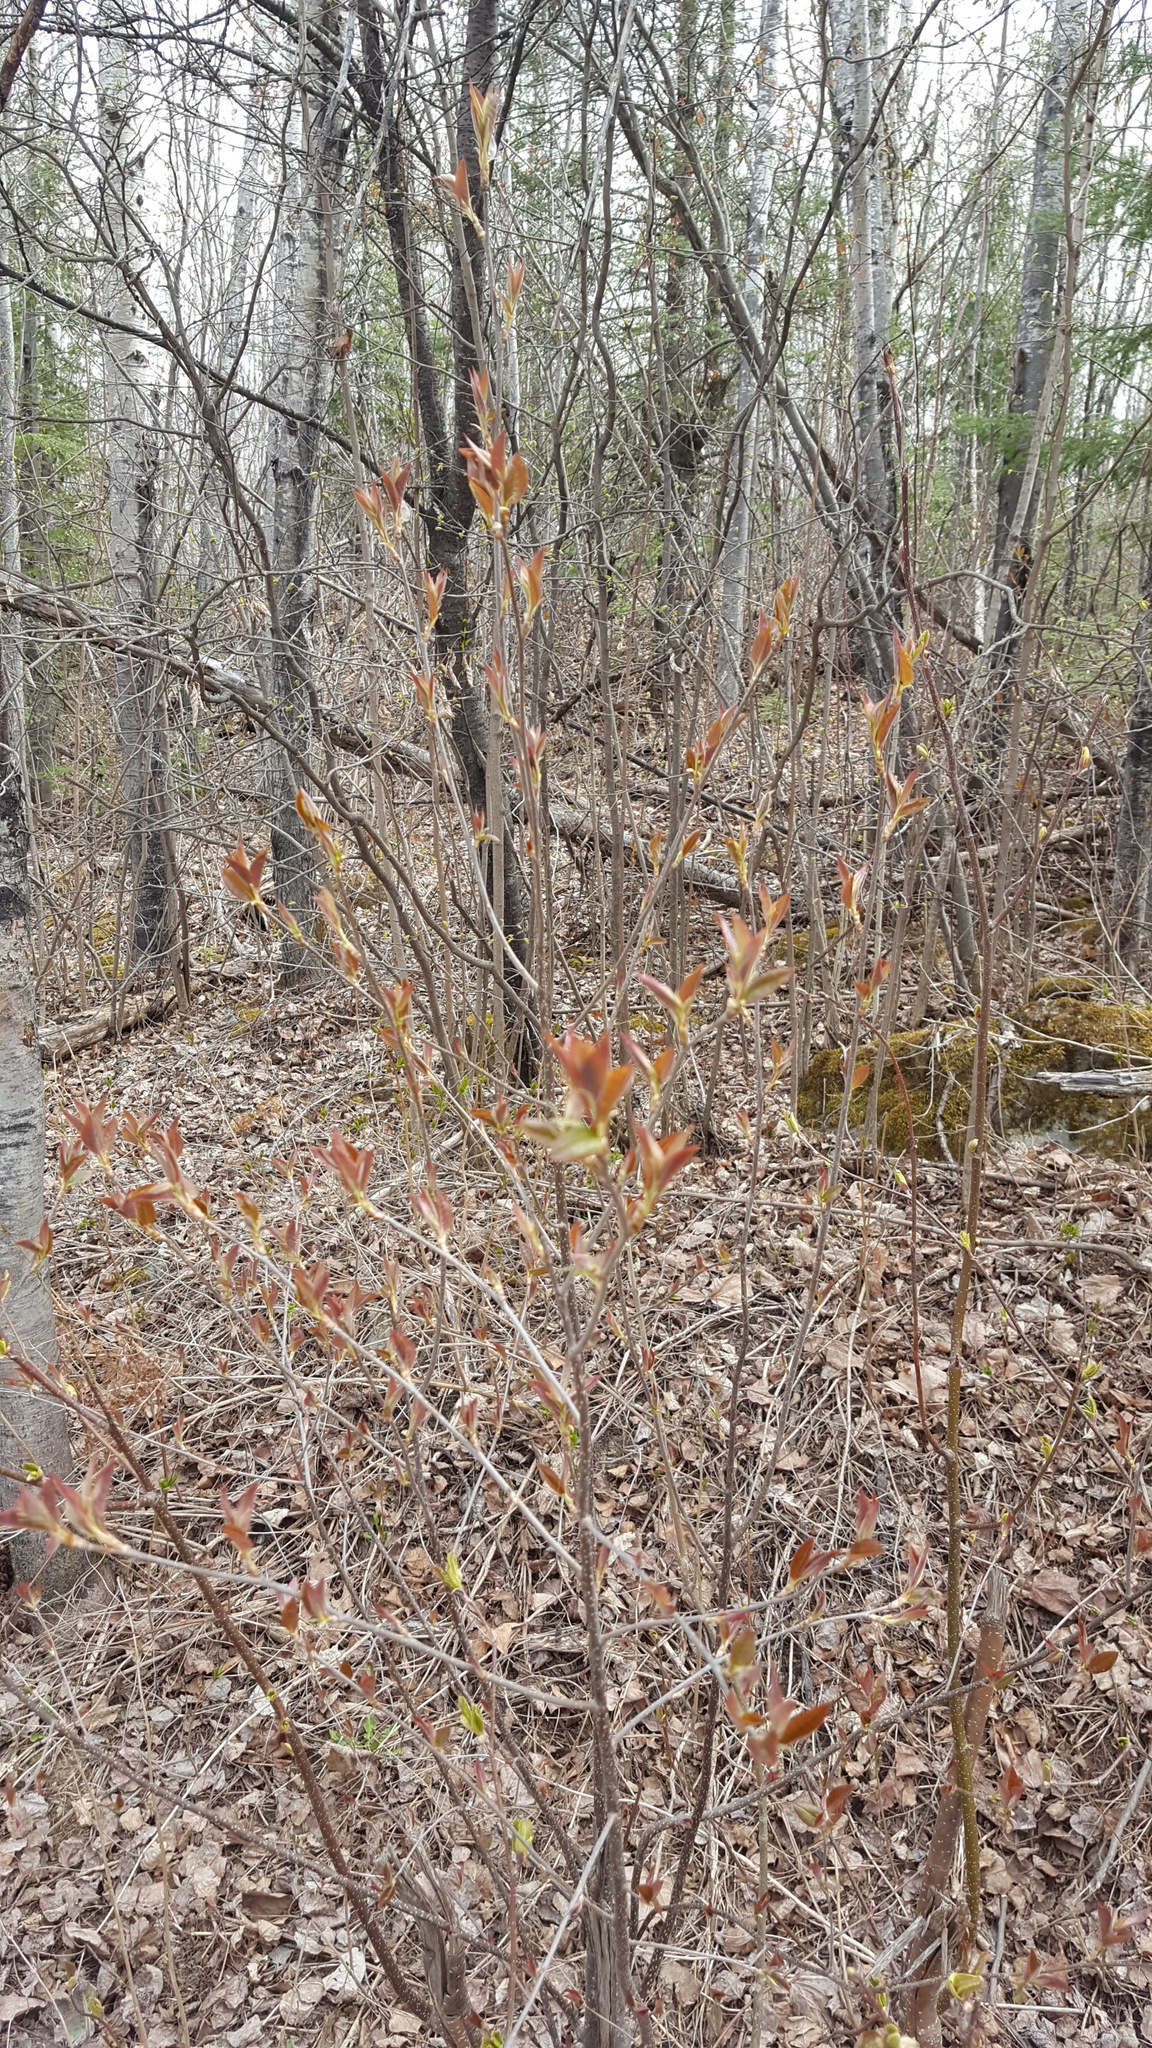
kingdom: Plantae
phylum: Tracheophyta
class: Magnoliopsida
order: Rosales
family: Rosaceae
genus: Prunus
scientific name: Prunus virginiana
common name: Chokecherry
